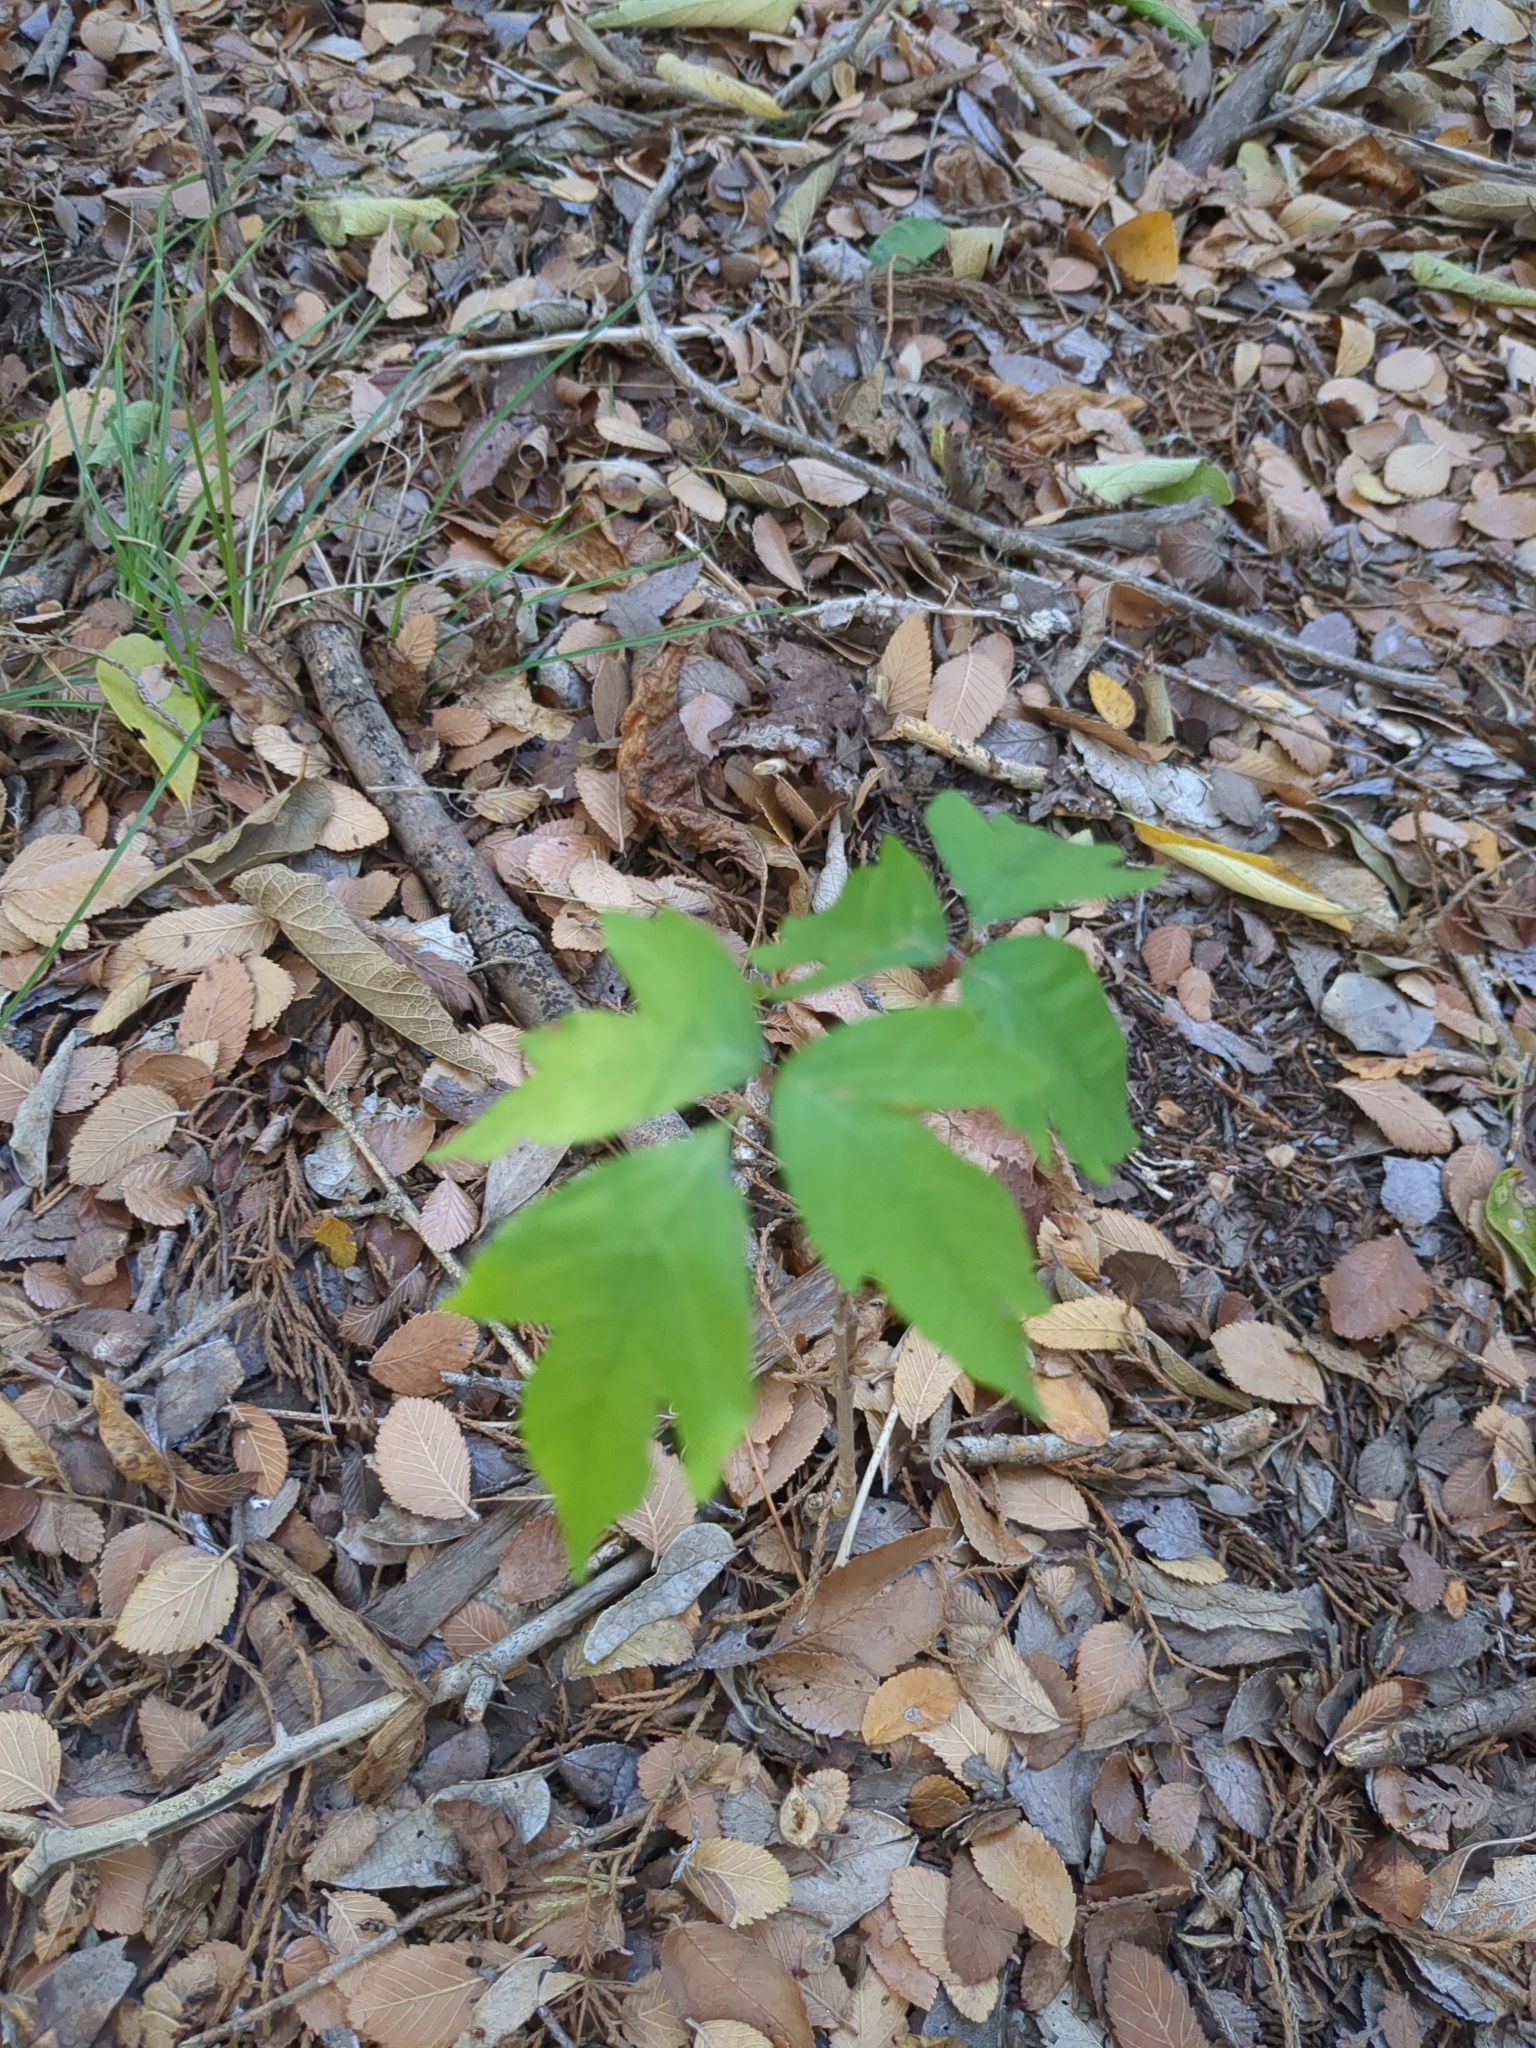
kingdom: Plantae
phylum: Tracheophyta
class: Magnoliopsida
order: Sapindales
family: Anacardiaceae
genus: Toxicodendron
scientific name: Toxicodendron radicans
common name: Poison ivy
